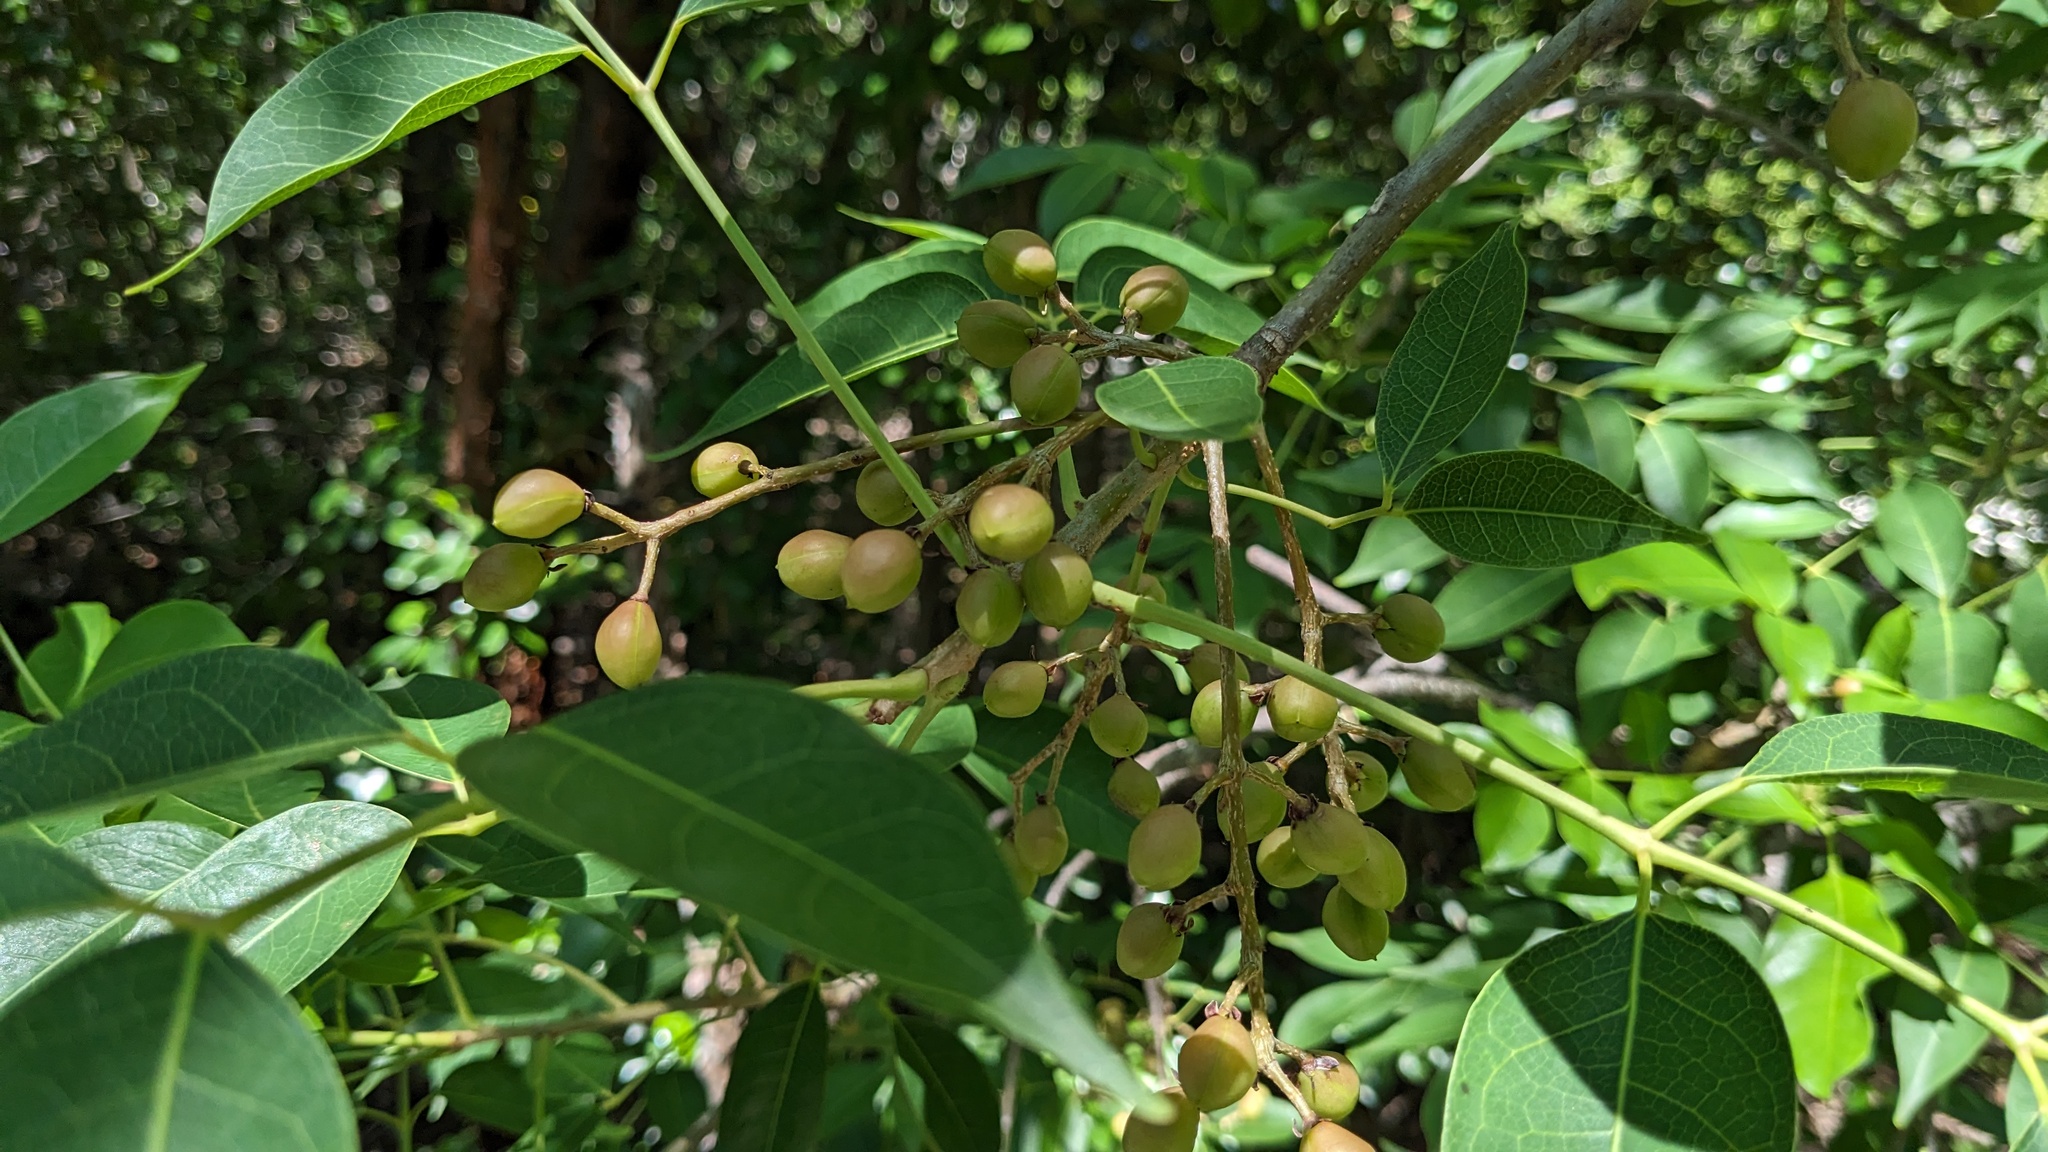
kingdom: Plantae
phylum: Tracheophyta
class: Magnoliopsida
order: Sapindales
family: Burseraceae
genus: Bursera
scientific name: Bursera simaruba
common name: Turpentine tree
